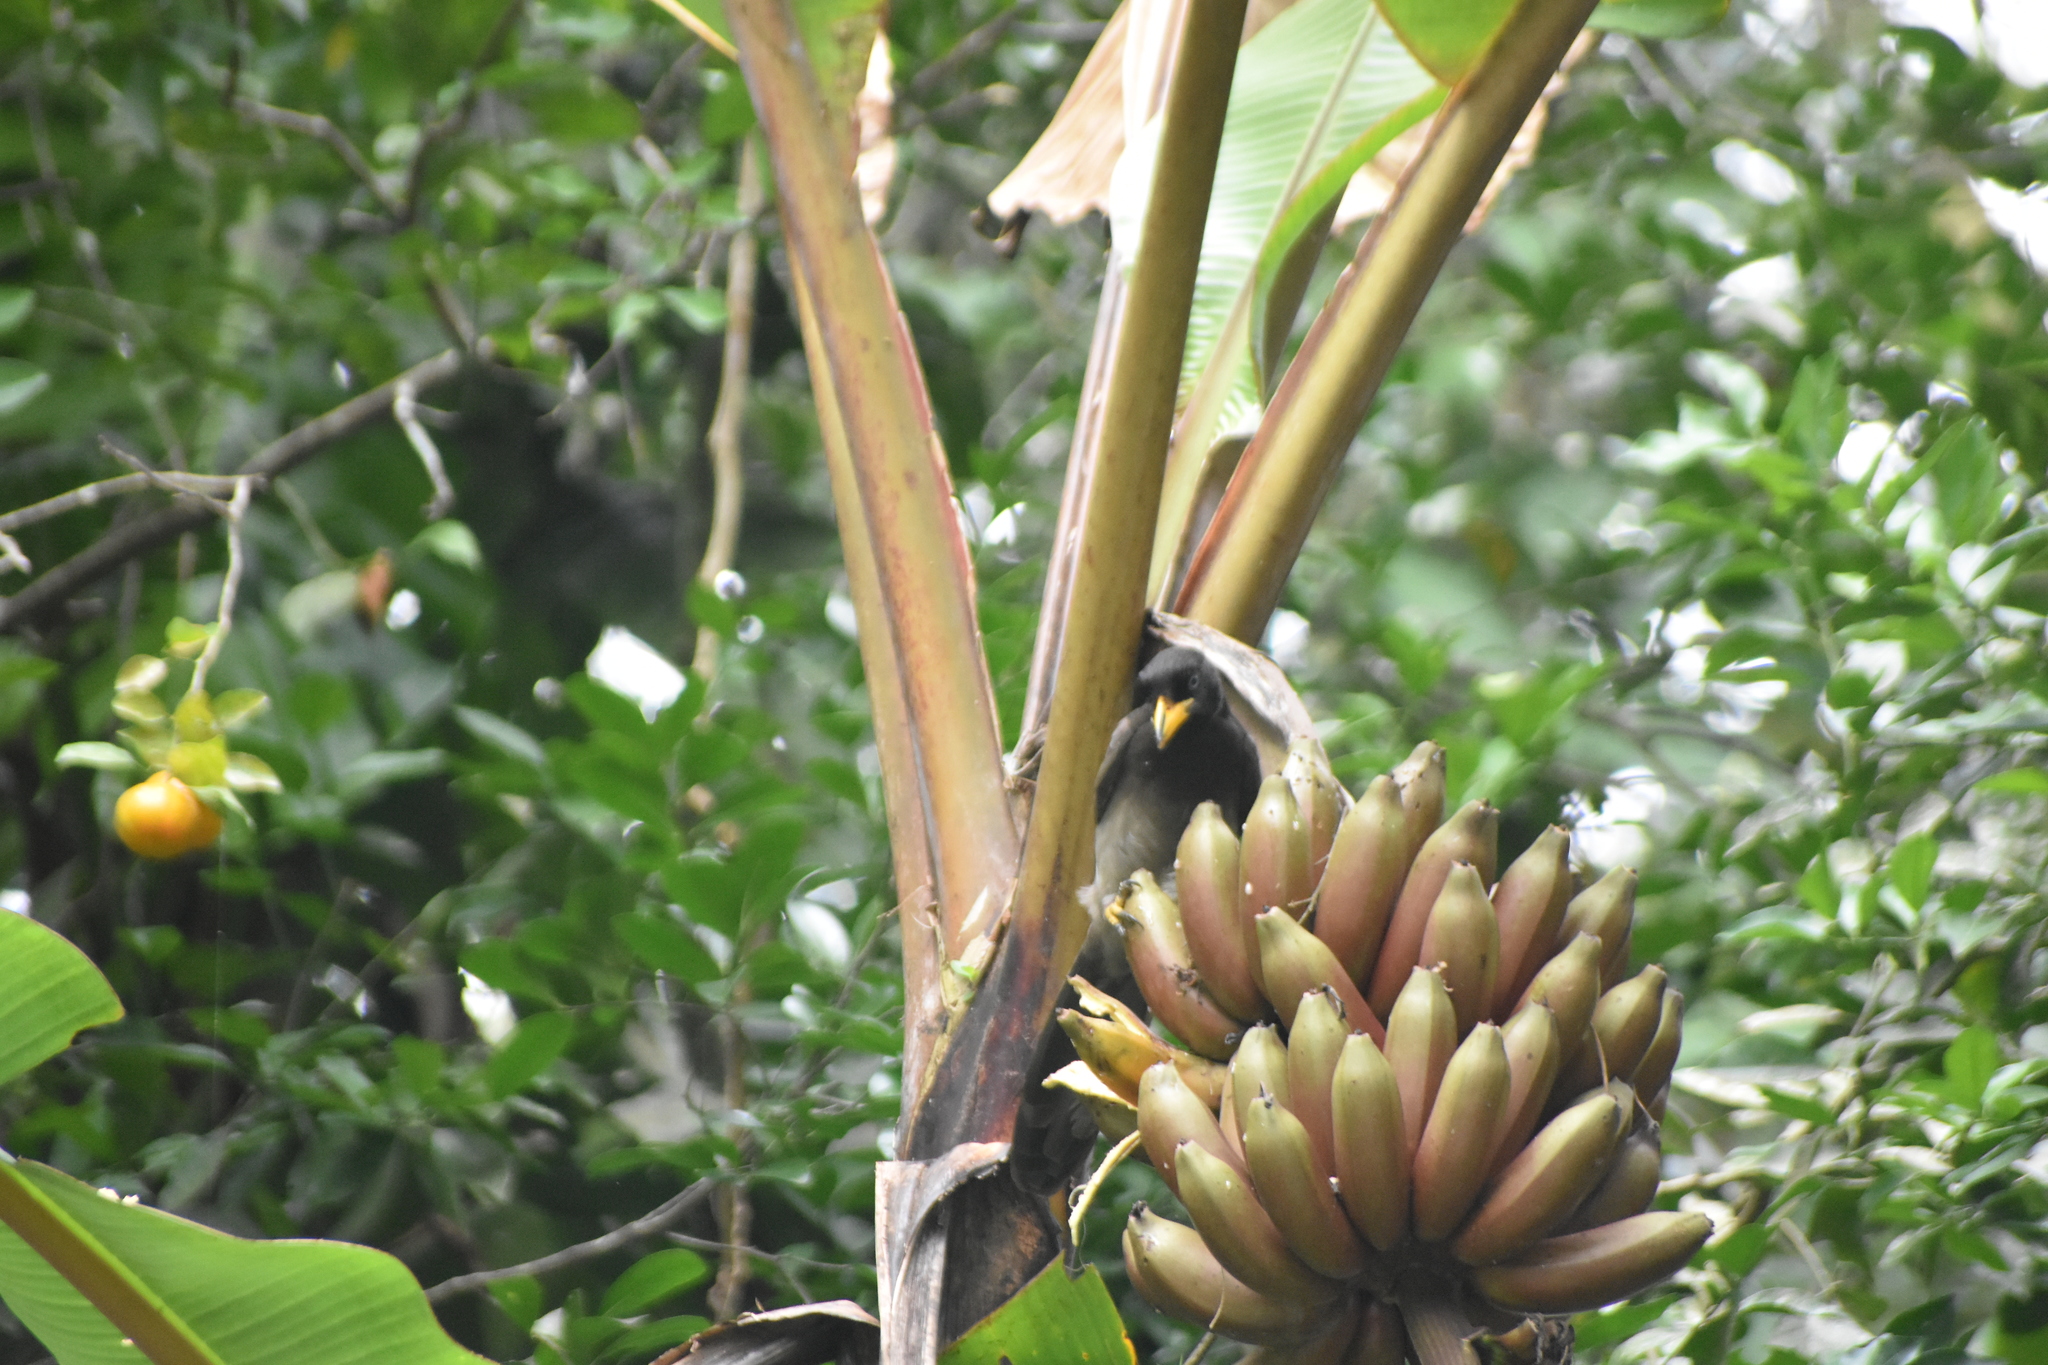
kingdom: Animalia
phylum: Chordata
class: Aves
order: Passeriformes
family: Corvidae
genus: Psilorhinus
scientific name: Psilorhinus morio
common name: Brown jay
